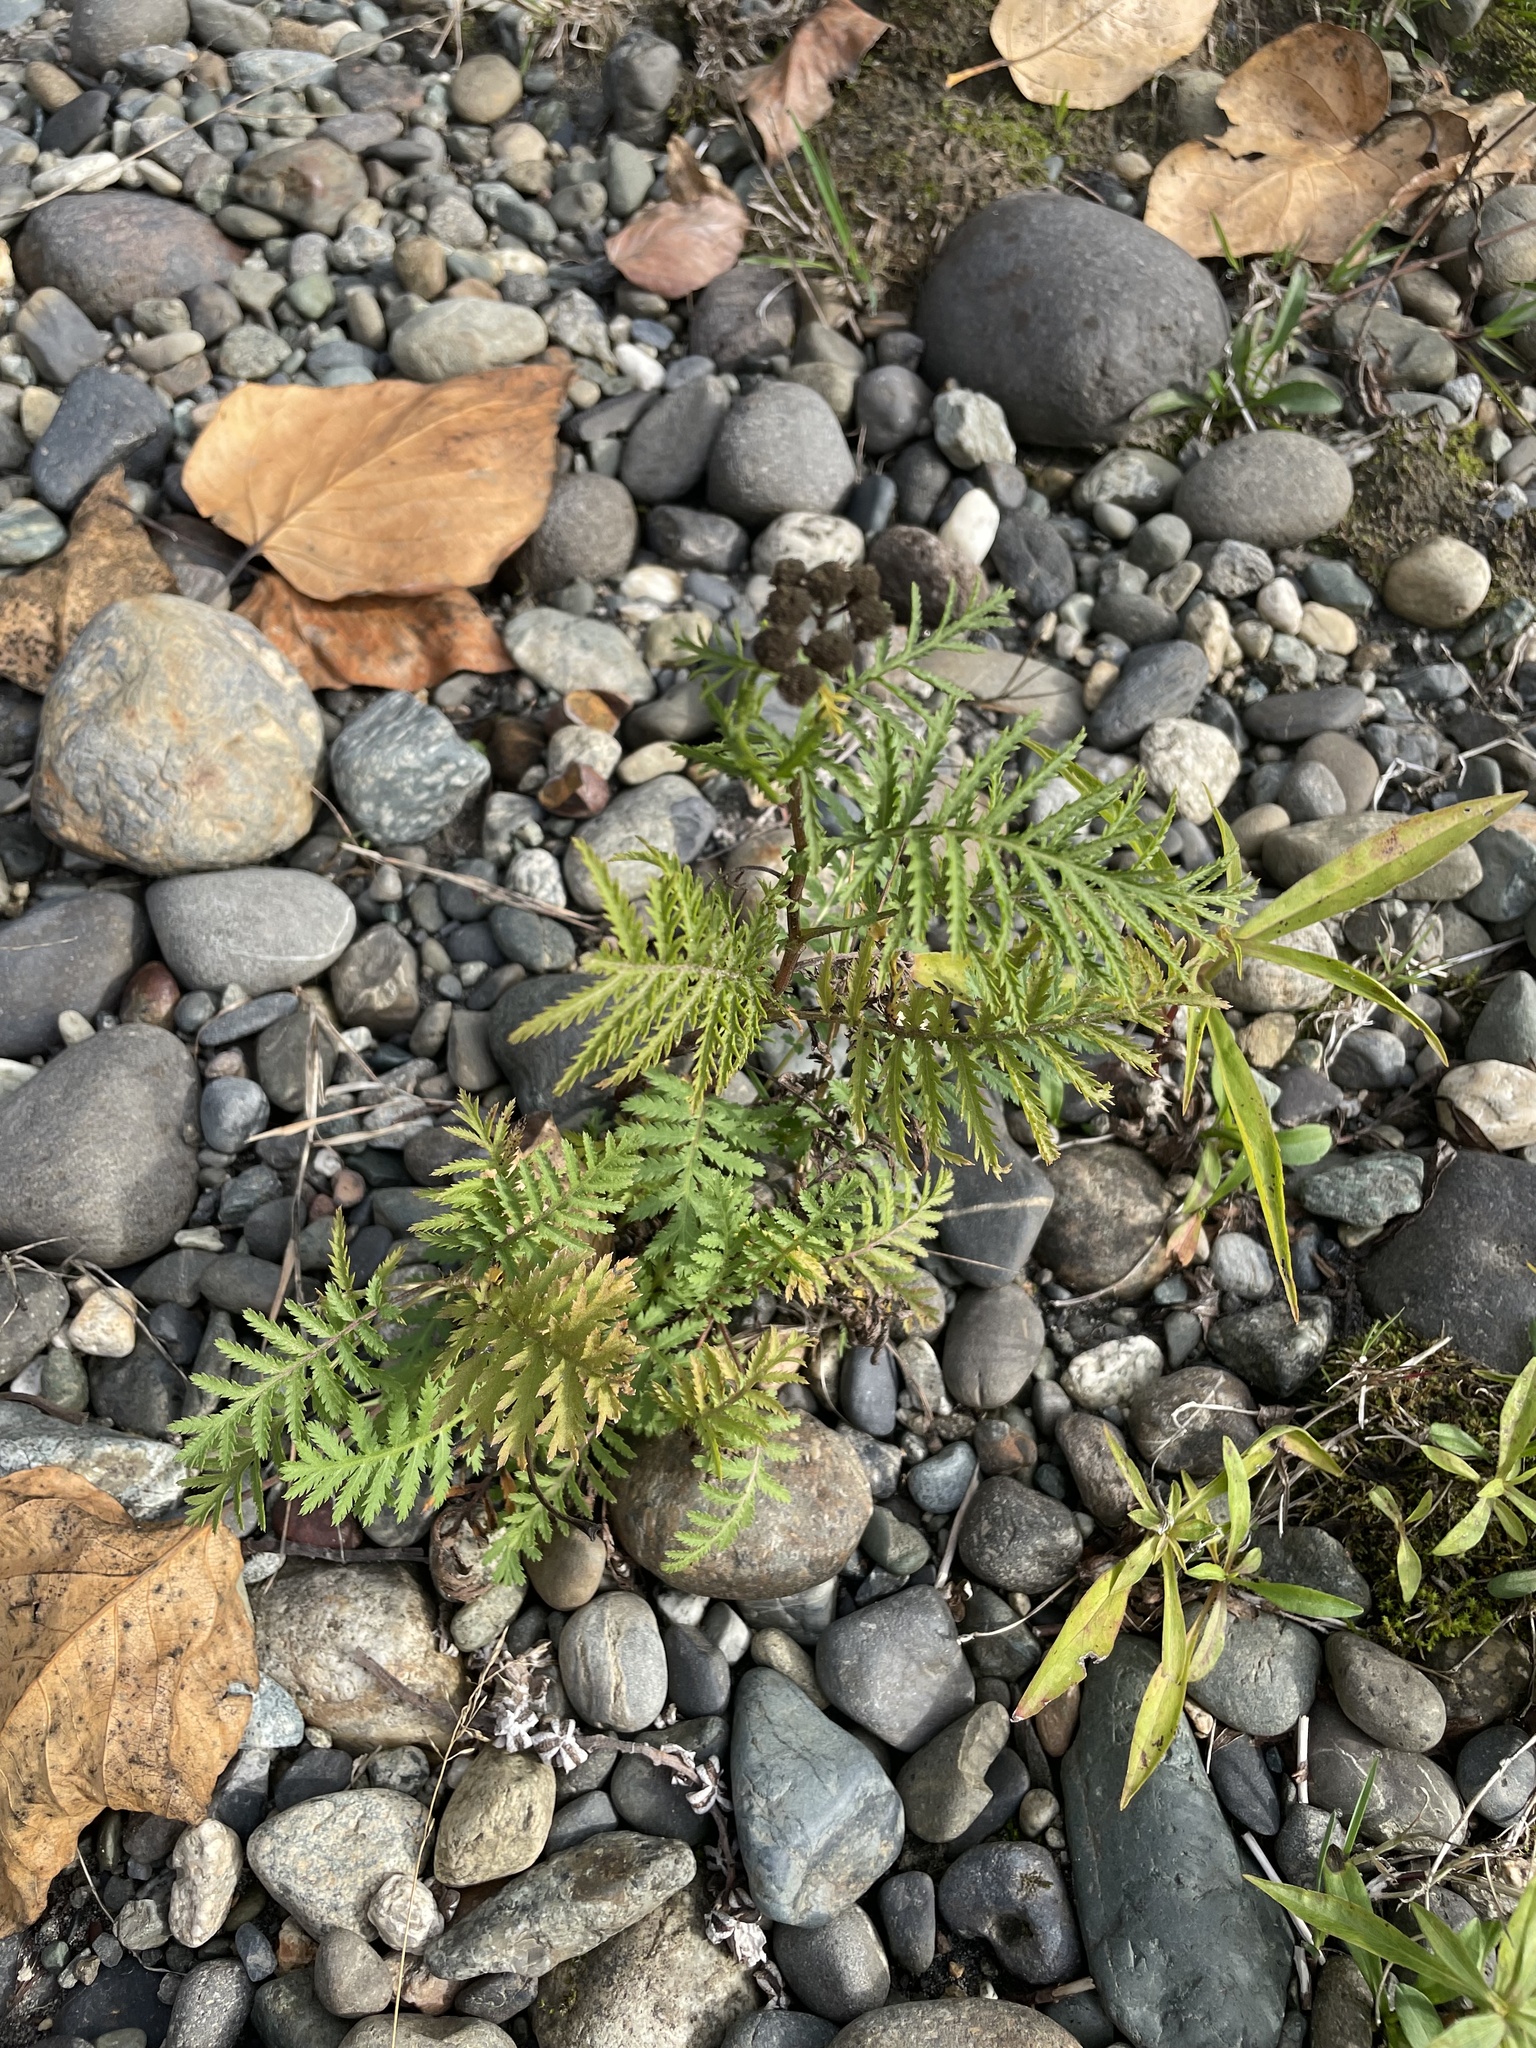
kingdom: Plantae
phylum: Tracheophyta
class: Magnoliopsida
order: Asterales
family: Asteraceae
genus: Tanacetum
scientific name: Tanacetum vulgare
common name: Common tansy
